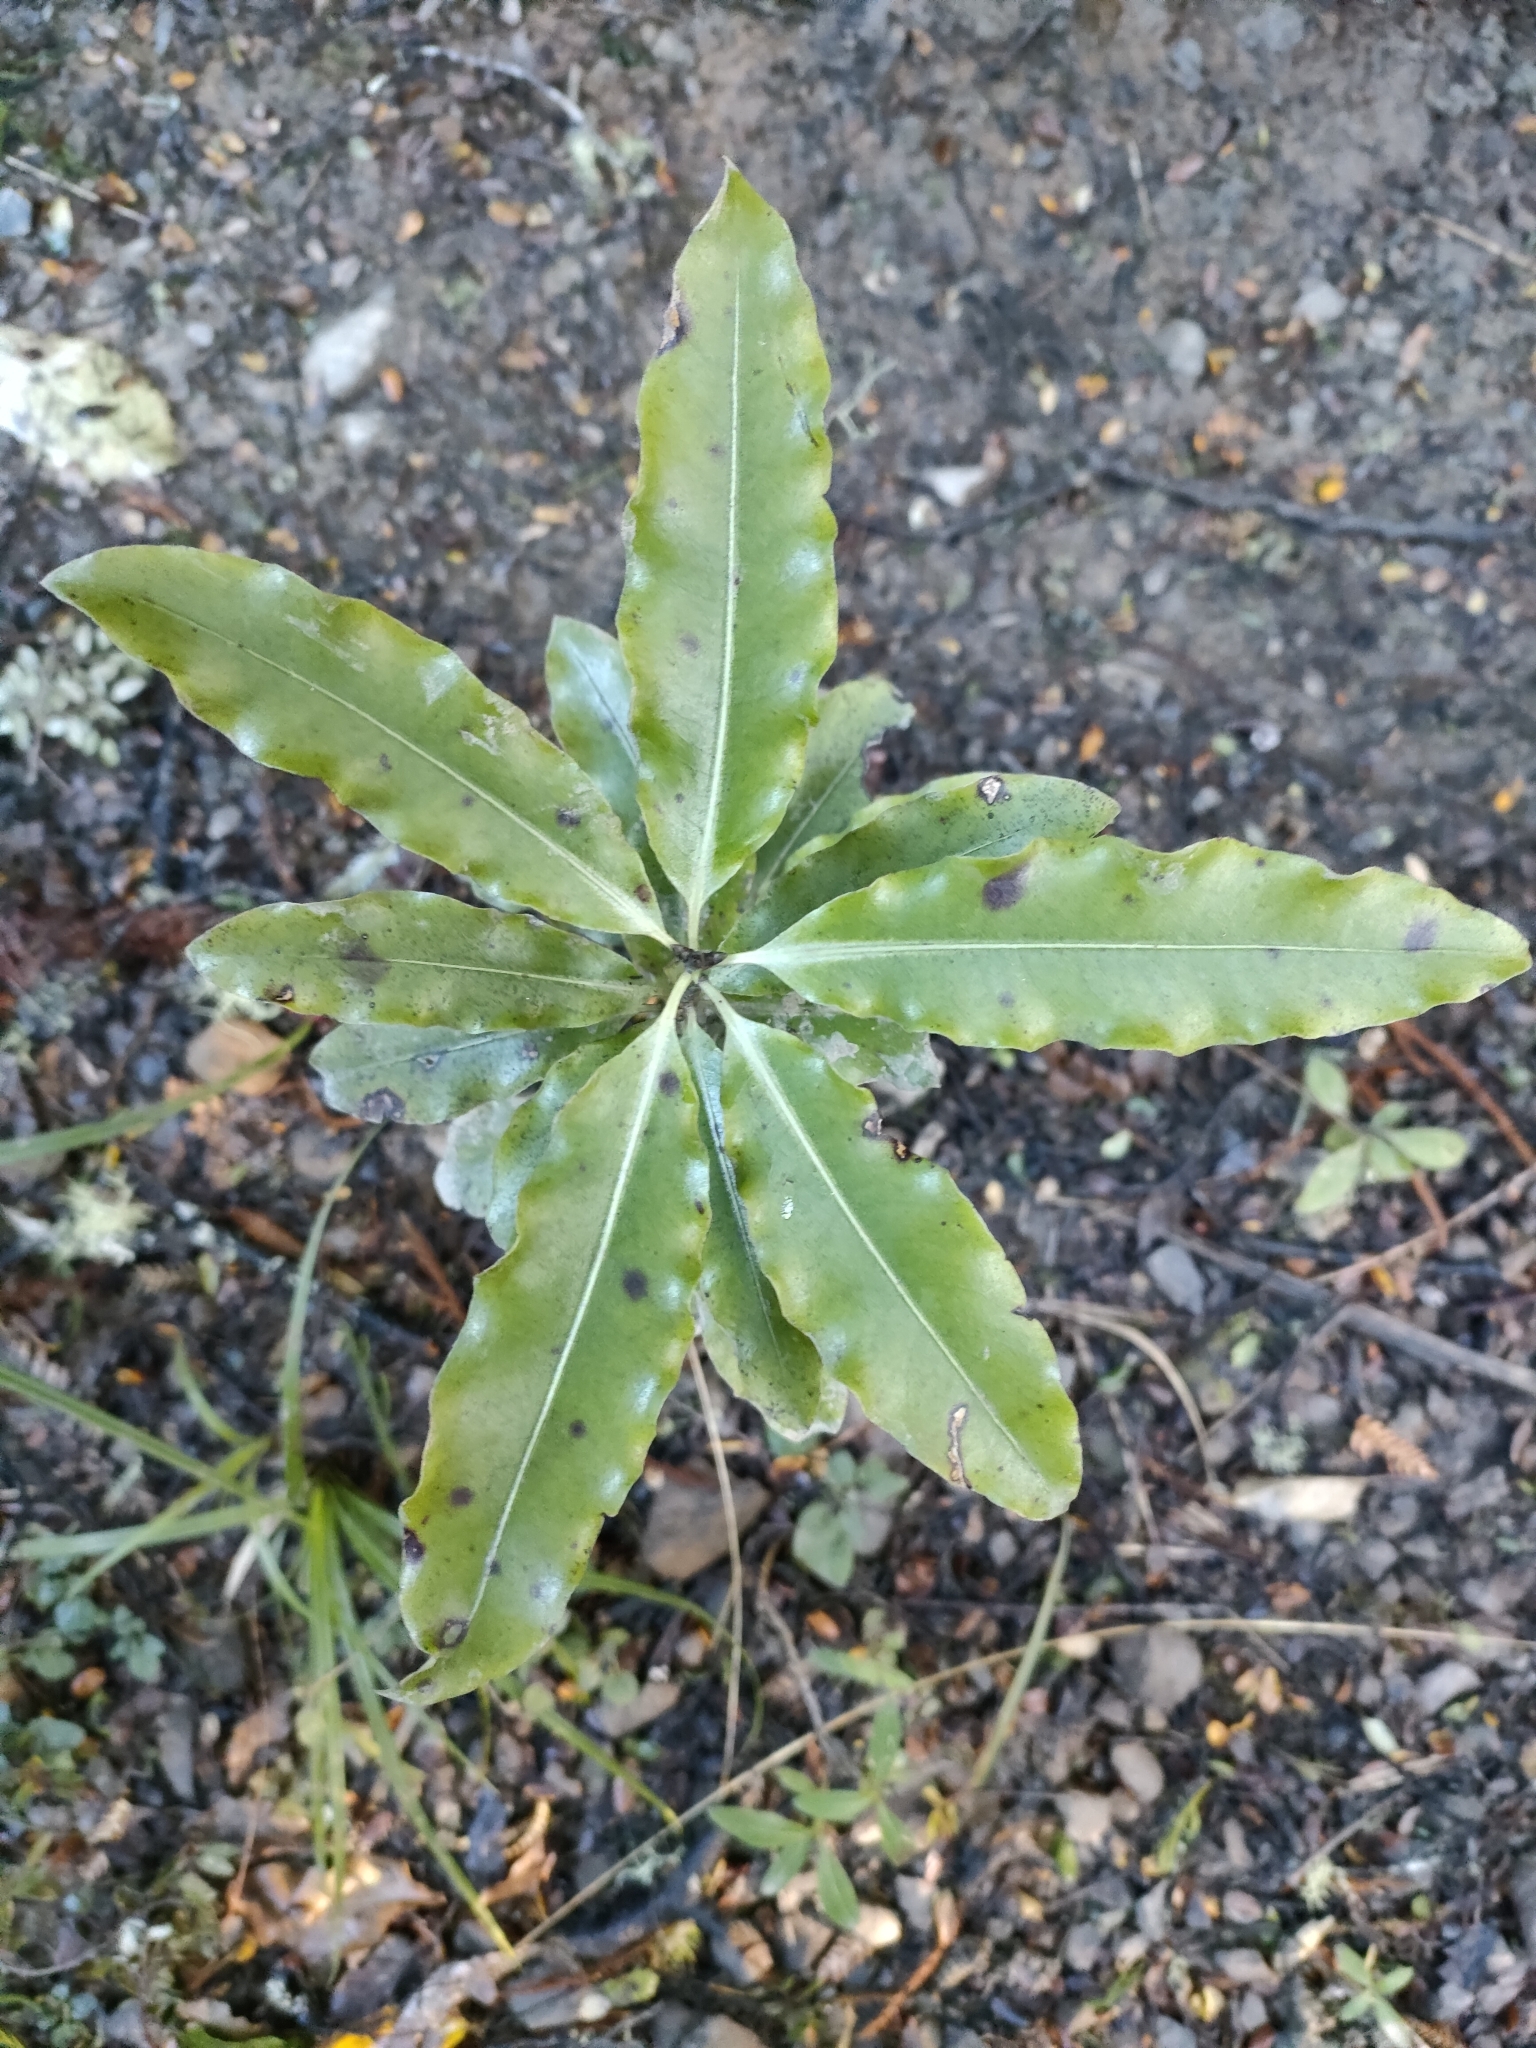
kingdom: Plantae
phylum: Tracheophyta
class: Magnoliopsida
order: Apiales
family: Pittosporaceae
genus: Pittosporum
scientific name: Pittosporum eugenioides
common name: Lemonwood
